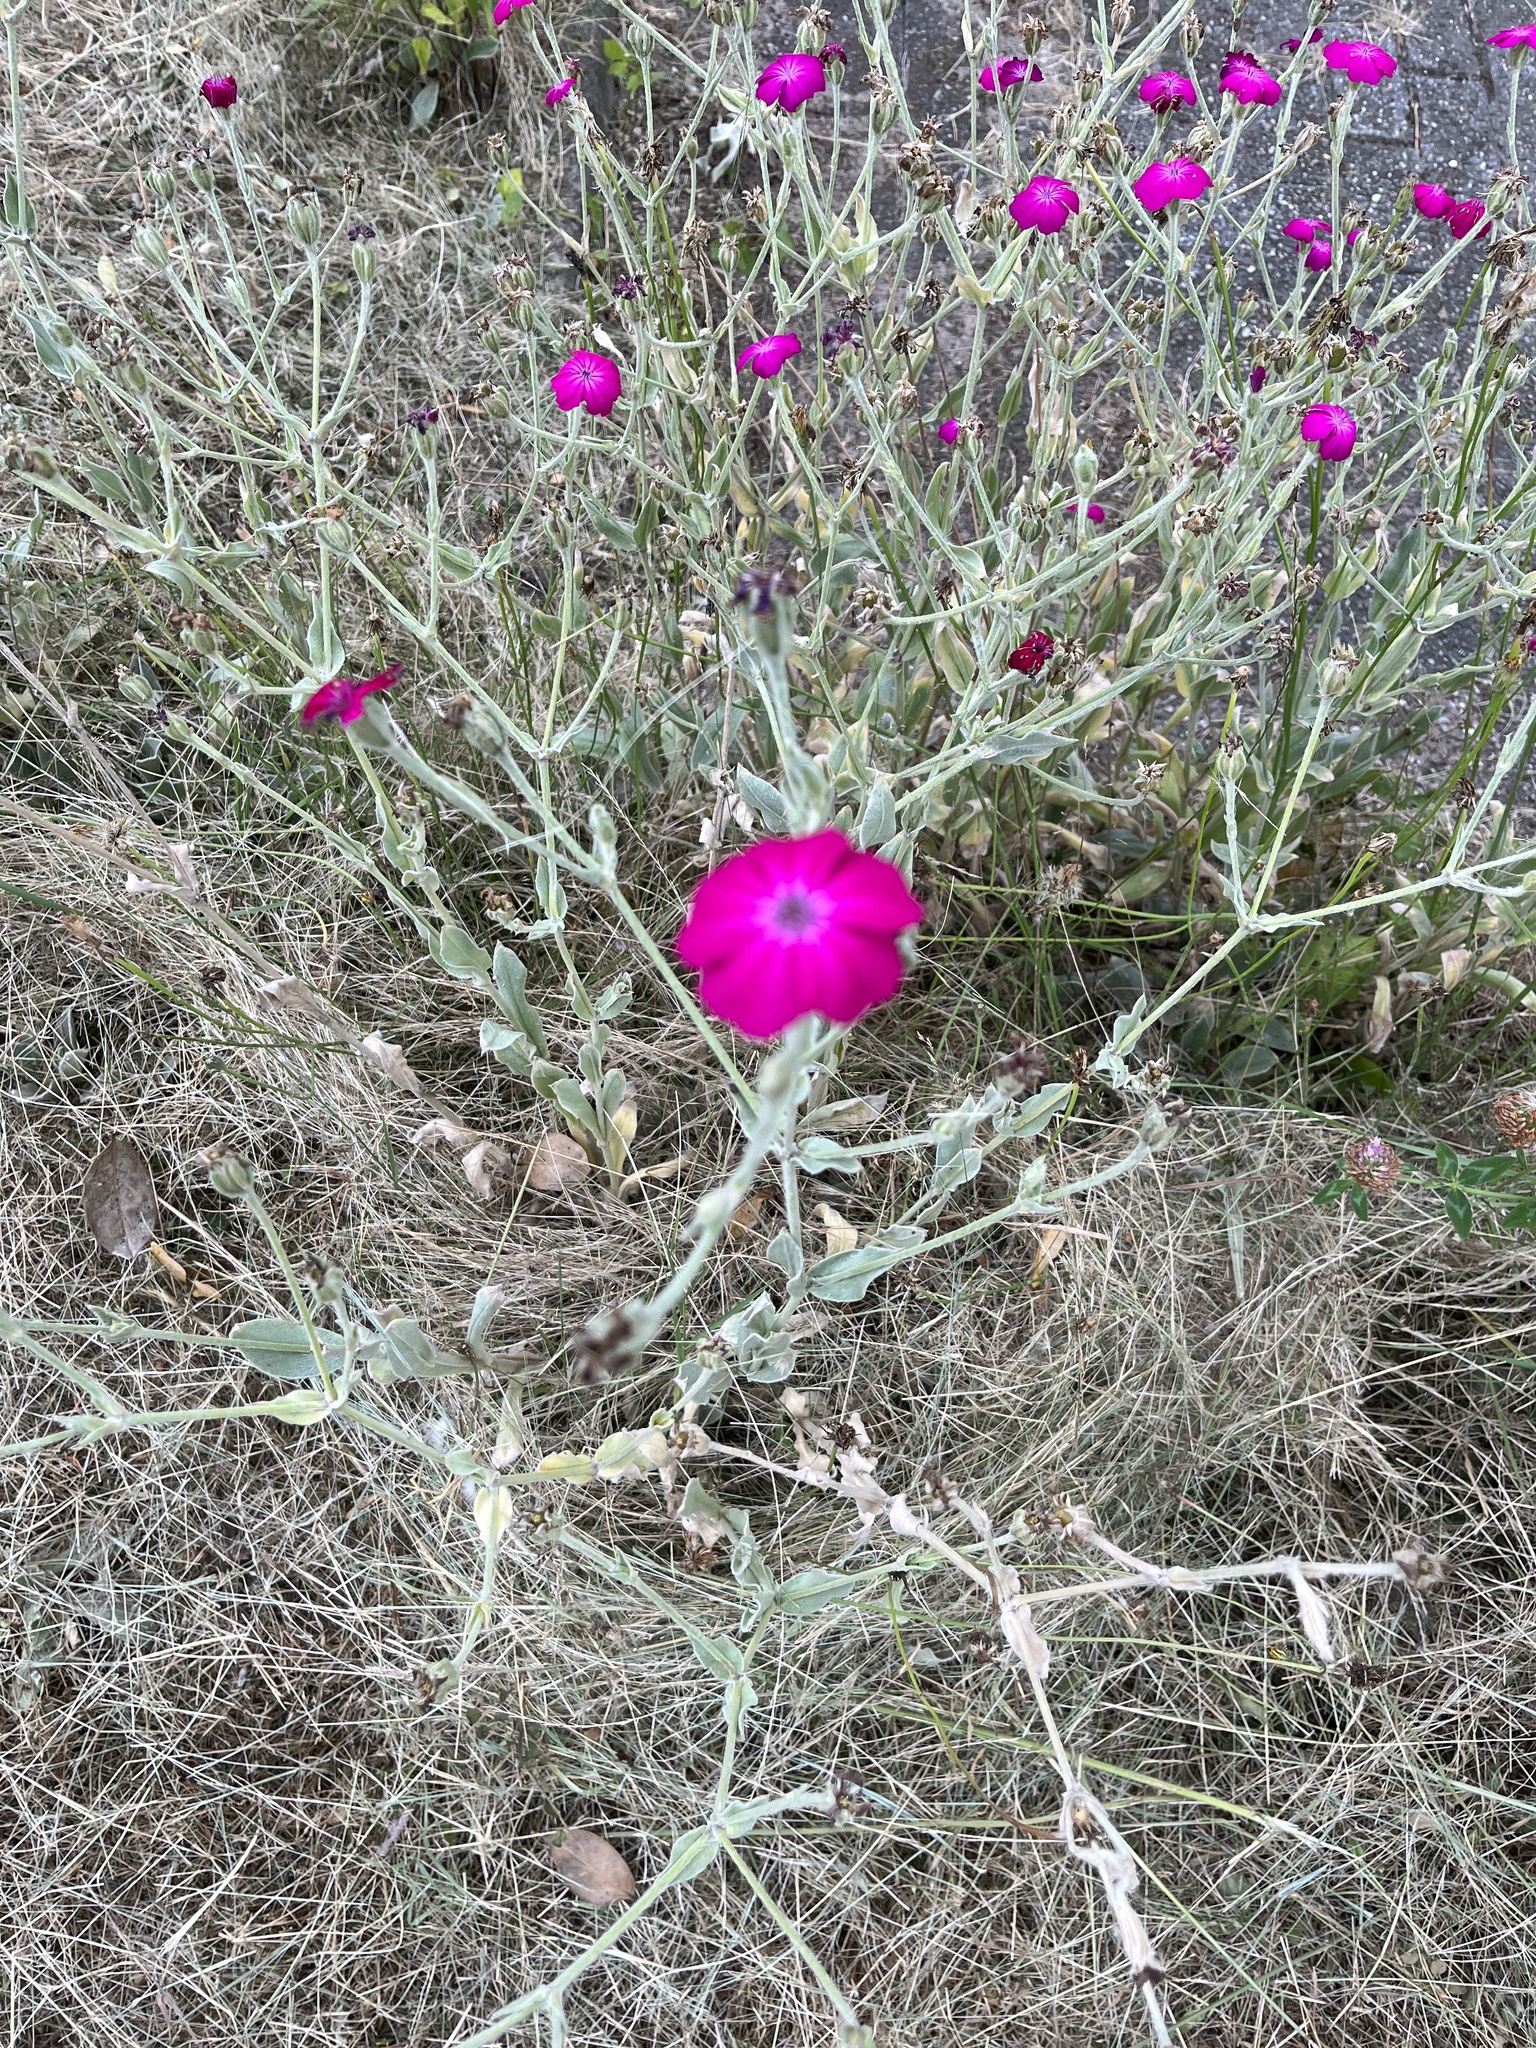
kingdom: Plantae
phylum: Tracheophyta
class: Magnoliopsida
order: Caryophyllales
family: Caryophyllaceae
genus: Silene
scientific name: Silene coronaria
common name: Rose campion
